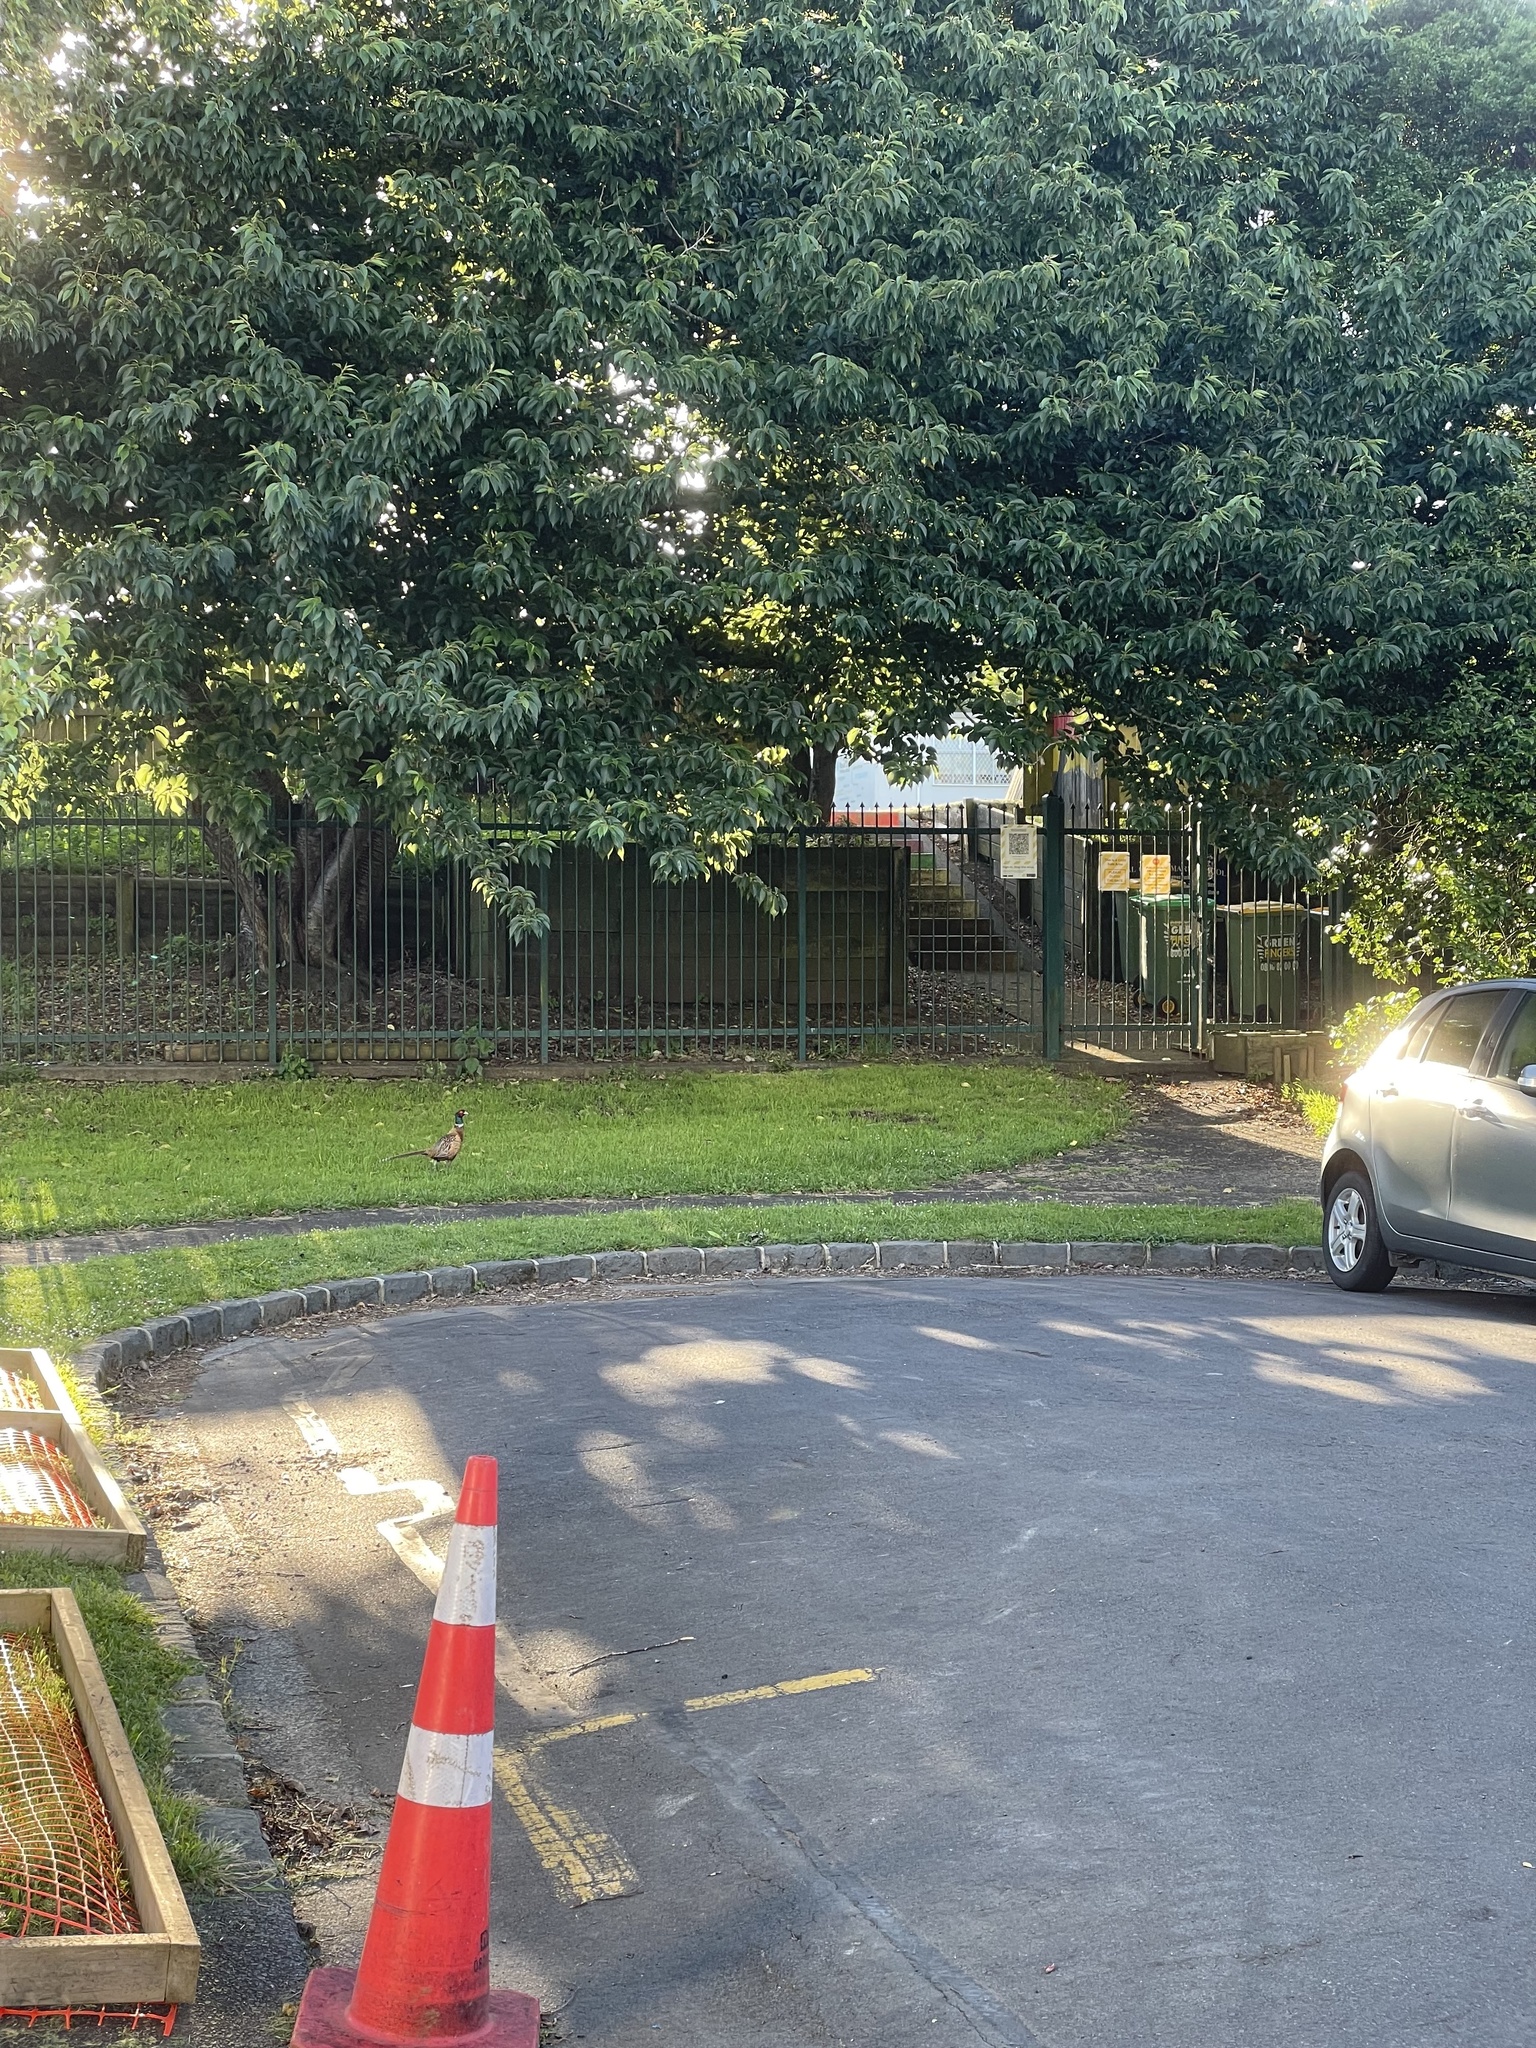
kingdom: Animalia
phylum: Chordata
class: Aves
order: Galliformes
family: Phasianidae
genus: Phasianus
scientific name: Phasianus colchicus
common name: Common pheasant
